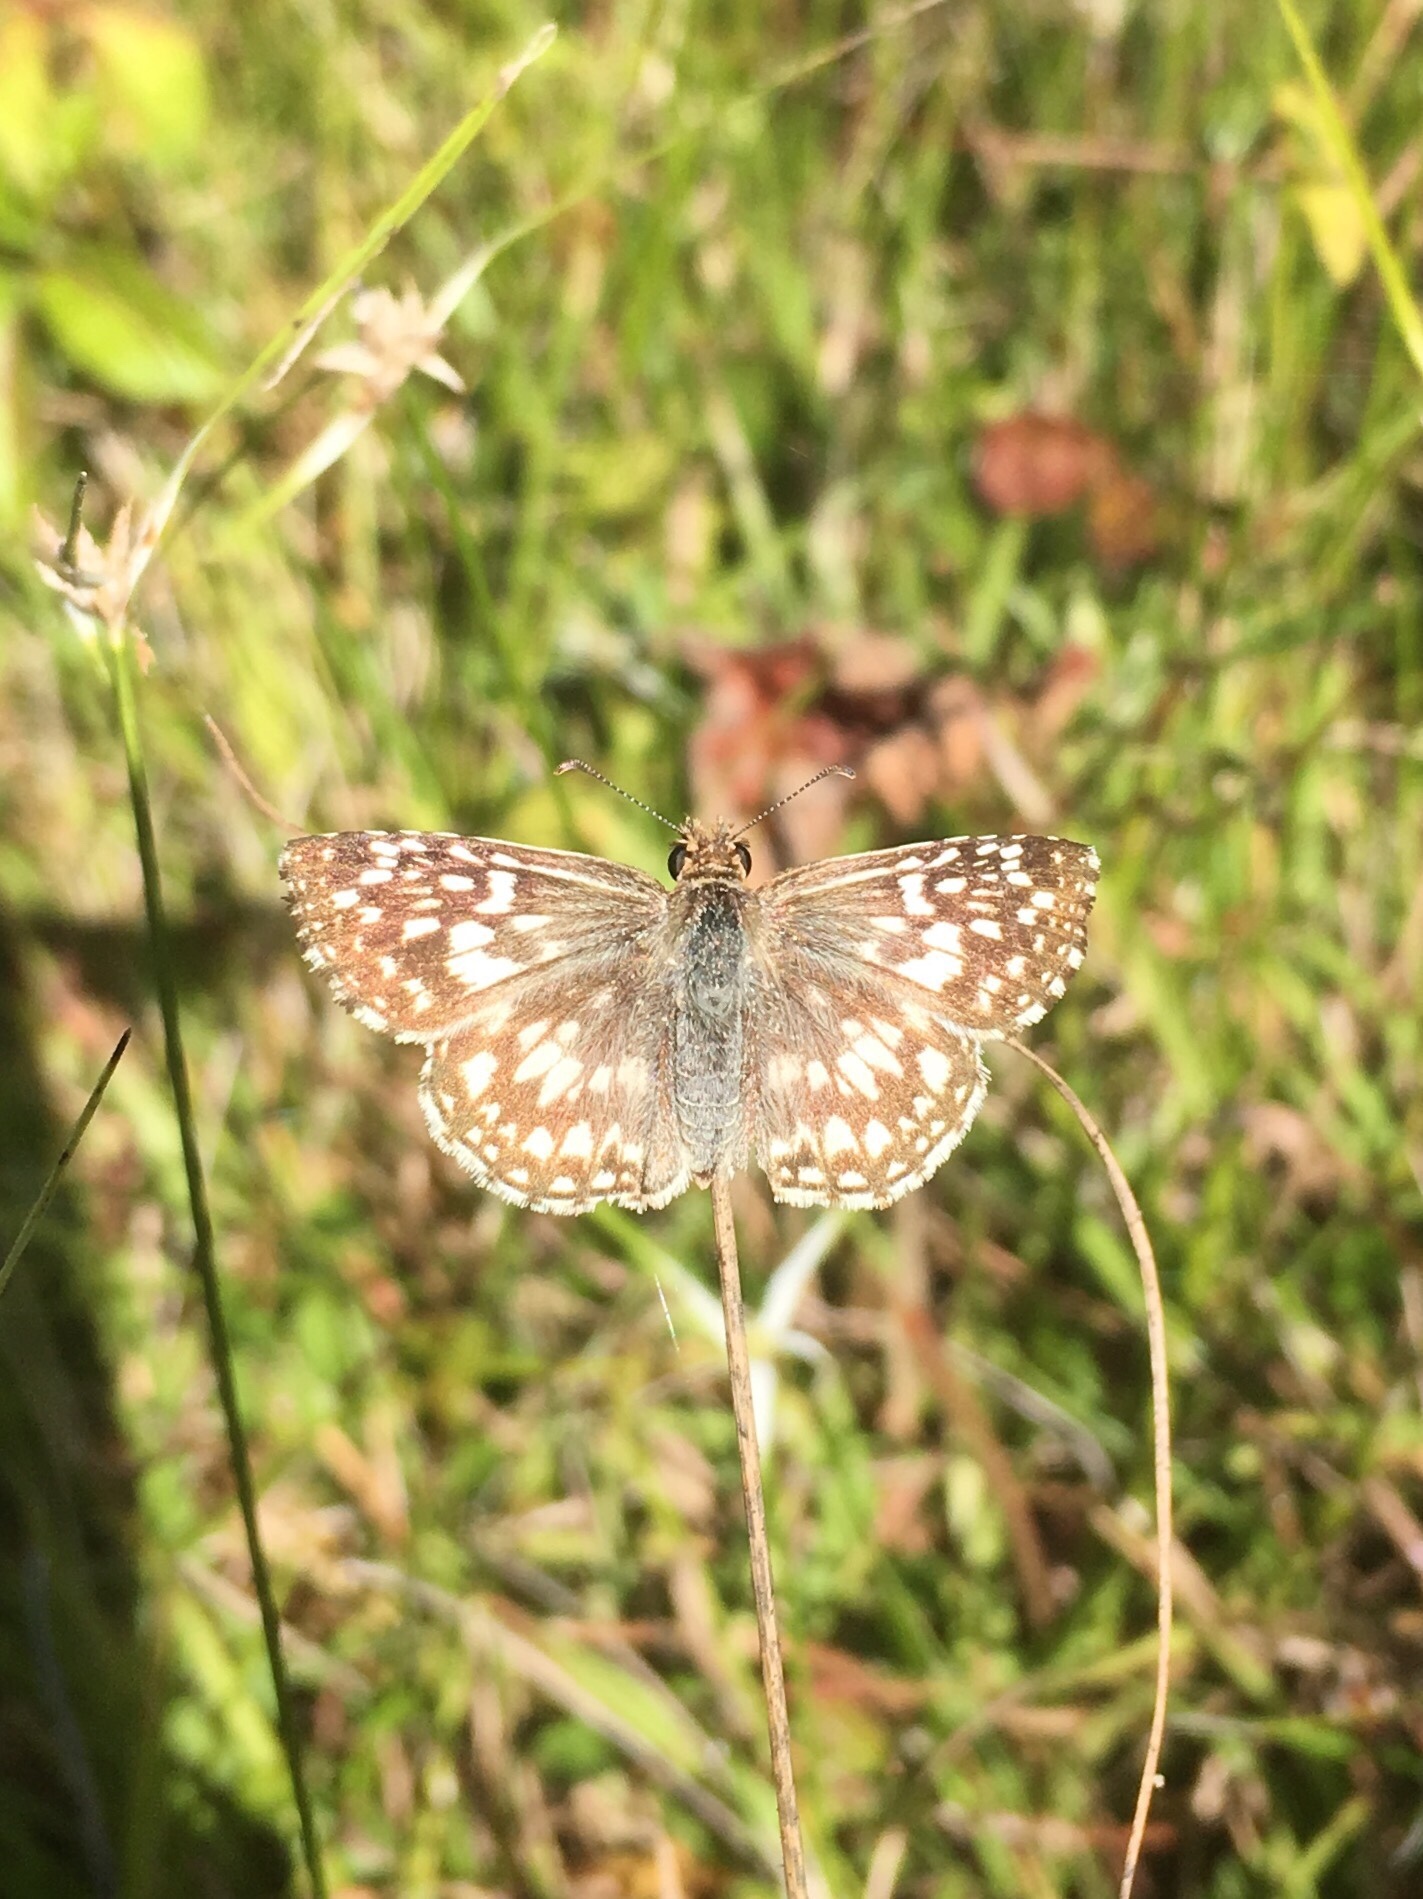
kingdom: Animalia
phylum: Arthropoda
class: Insecta
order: Lepidoptera
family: Hesperiidae
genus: Pyrgus
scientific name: Pyrgus oileus
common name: Tropical checkered-skipper
